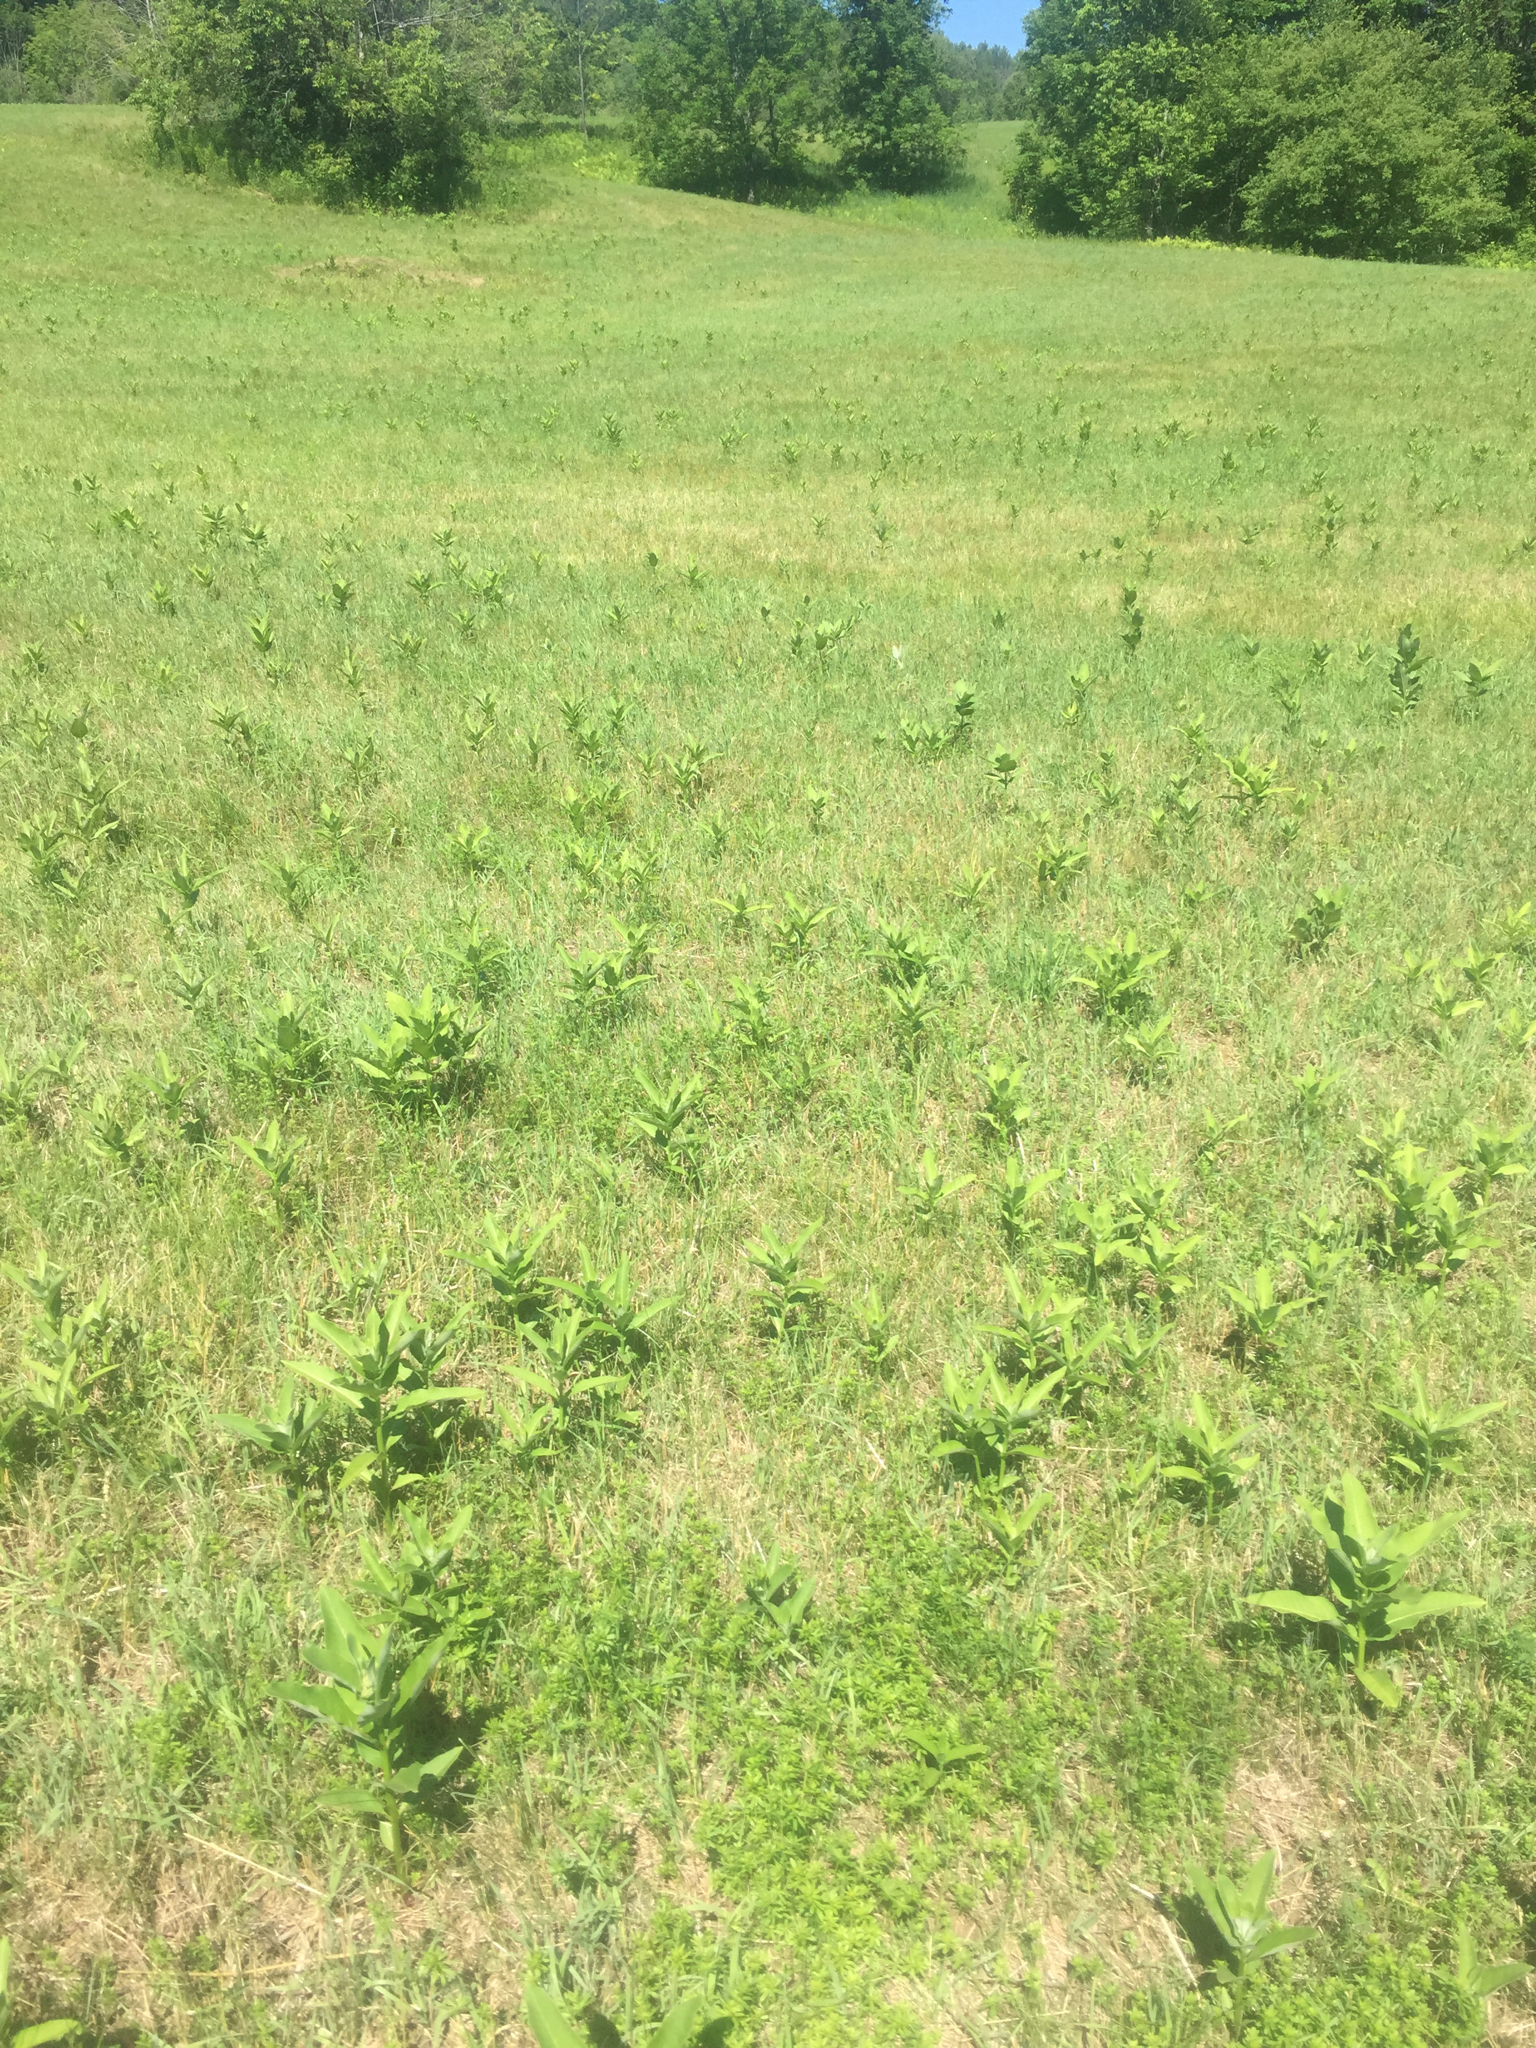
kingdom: Plantae
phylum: Tracheophyta
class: Magnoliopsida
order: Gentianales
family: Apocynaceae
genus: Asclepias
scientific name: Asclepias syriaca
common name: Common milkweed
